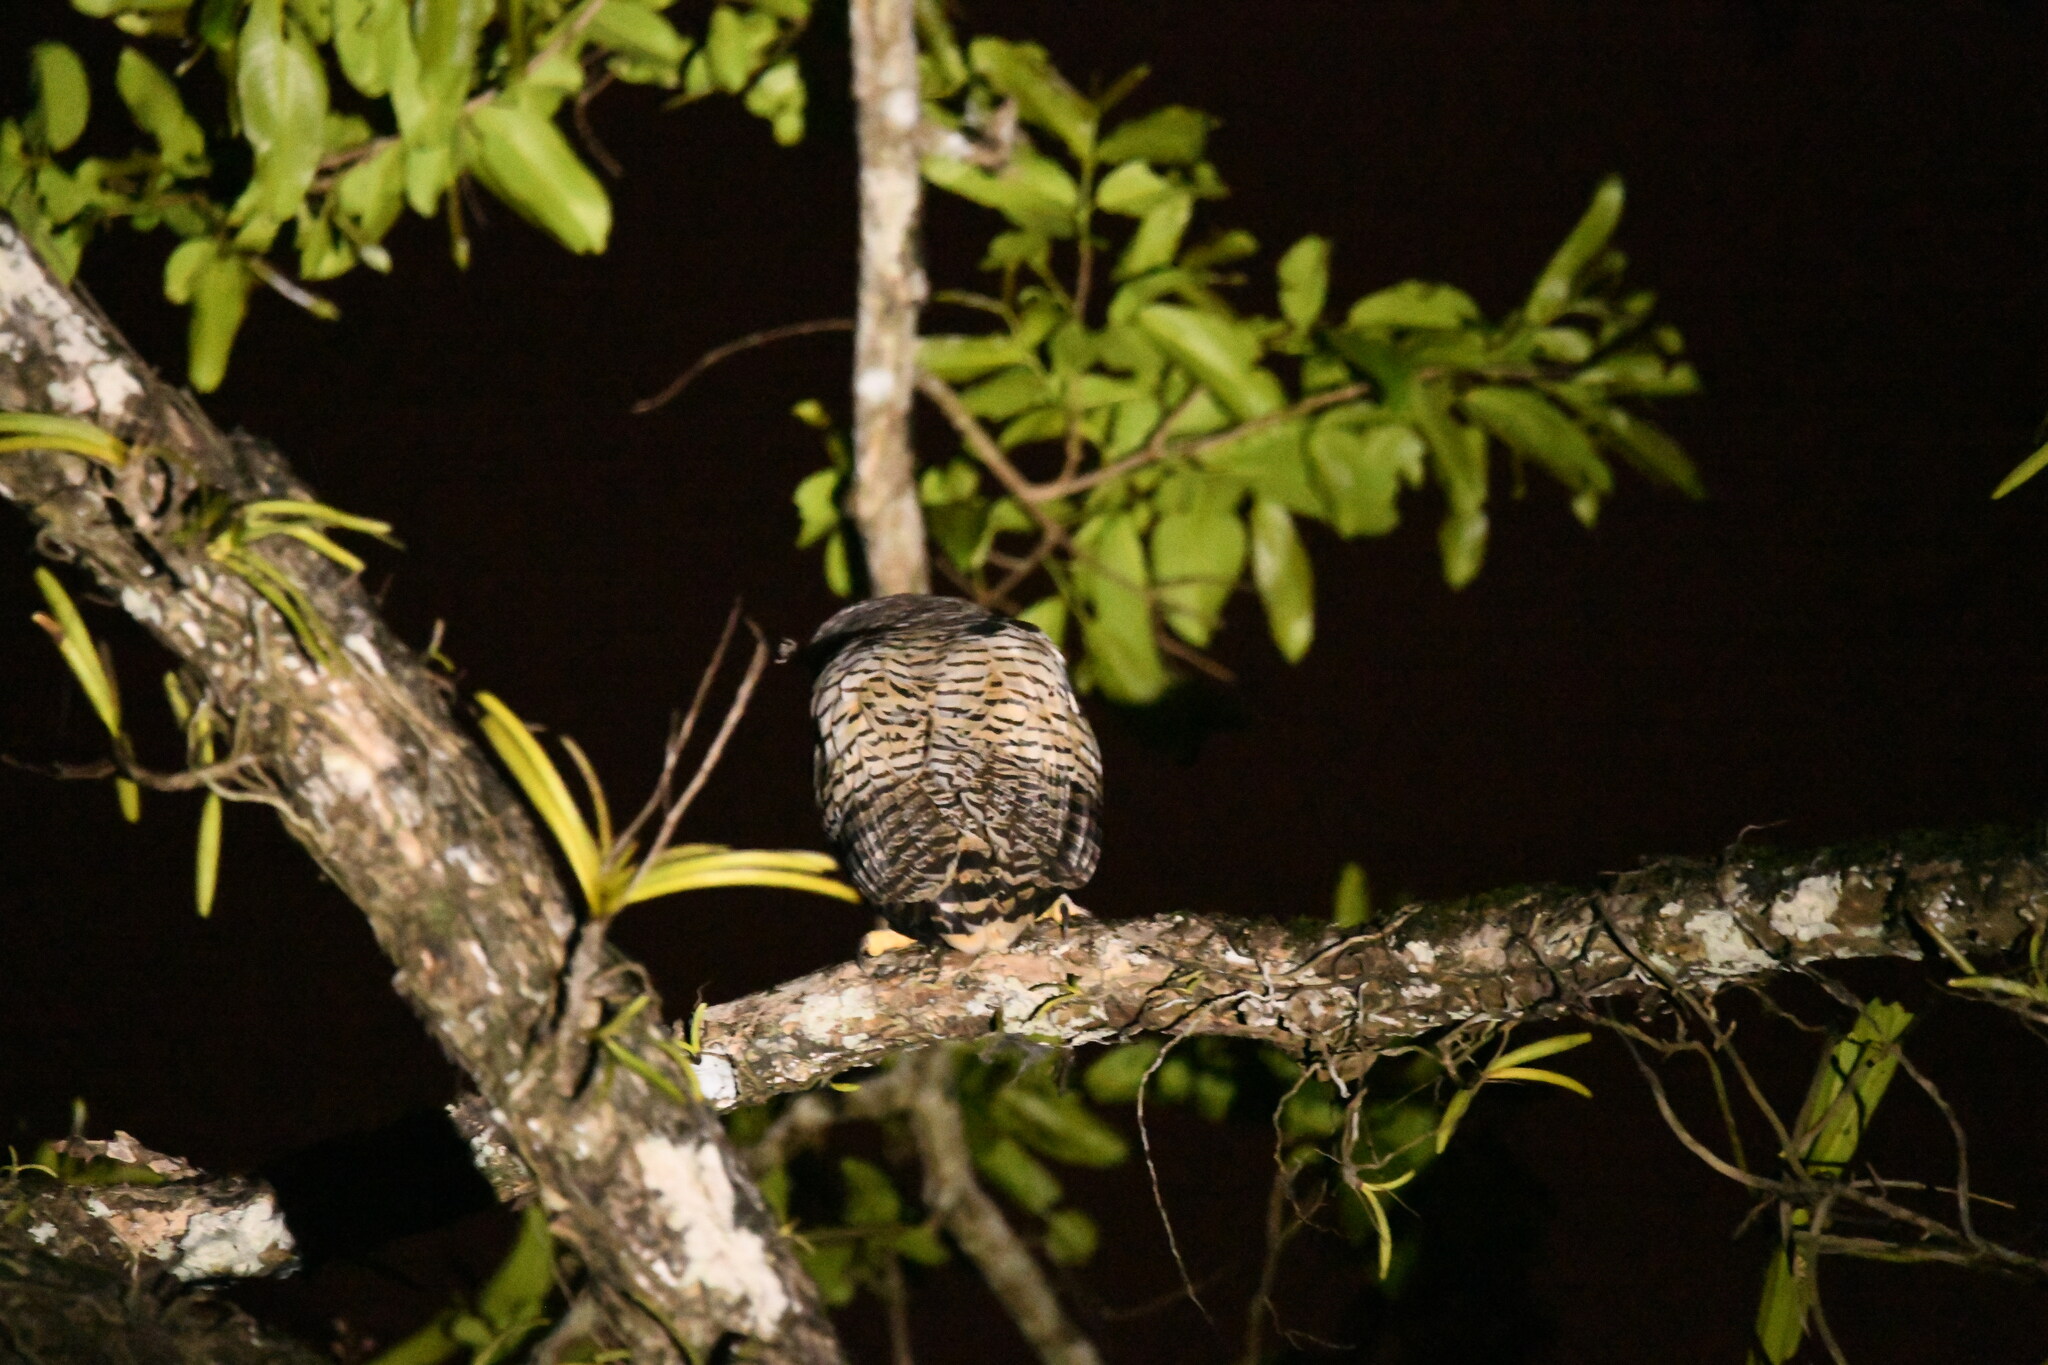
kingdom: Animalia
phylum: Chordata
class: Aves
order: Strigiformes
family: Strigidae
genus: Ketupa
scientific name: Ketupa nipalensis
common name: Spot-bellied eagle-owl
